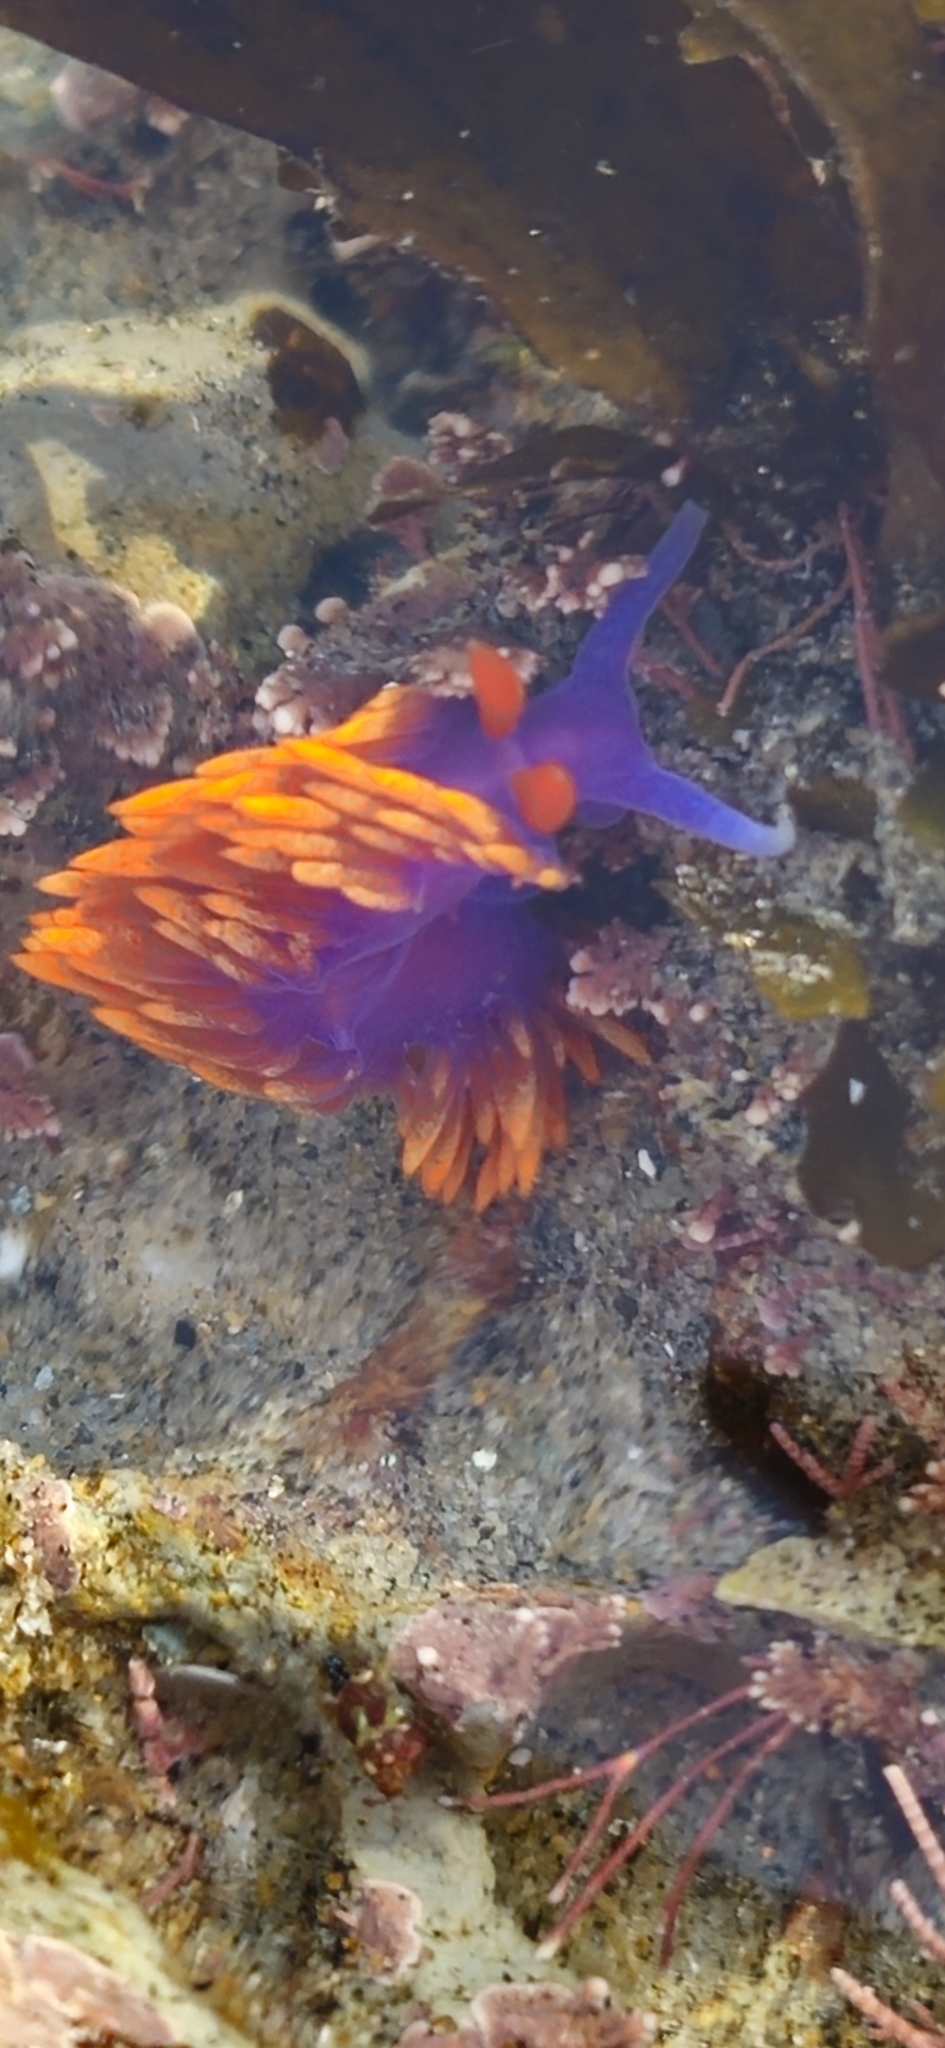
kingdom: Animalia
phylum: Mollusca
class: Gastropoda
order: Nudibranchia
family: Flabellinopsidae
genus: Flabellinopsis
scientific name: Flabellinopsis iodinea
